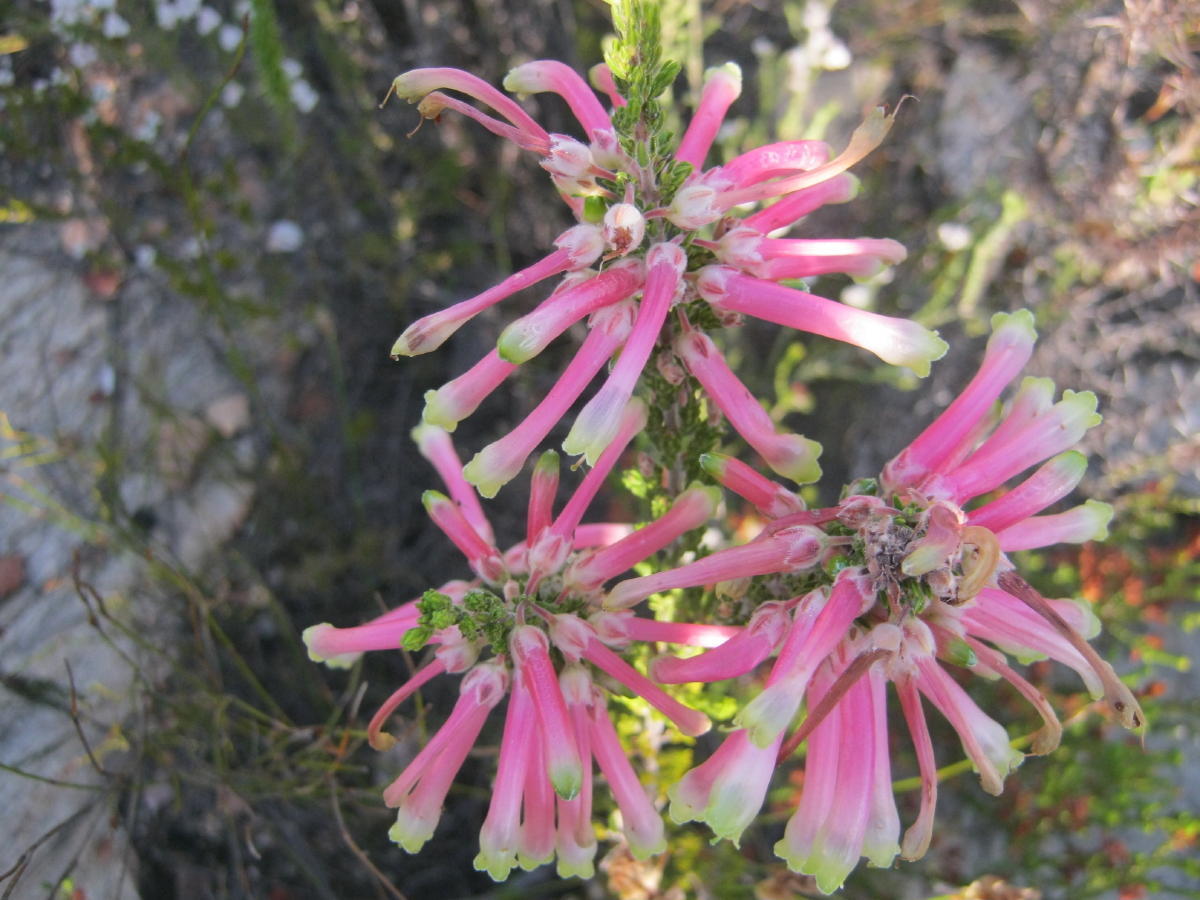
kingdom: Plantae
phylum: Tracheophyta
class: Magnoliopsida
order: Ericales
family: Ericaceae
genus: Erica
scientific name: Erica discolor
